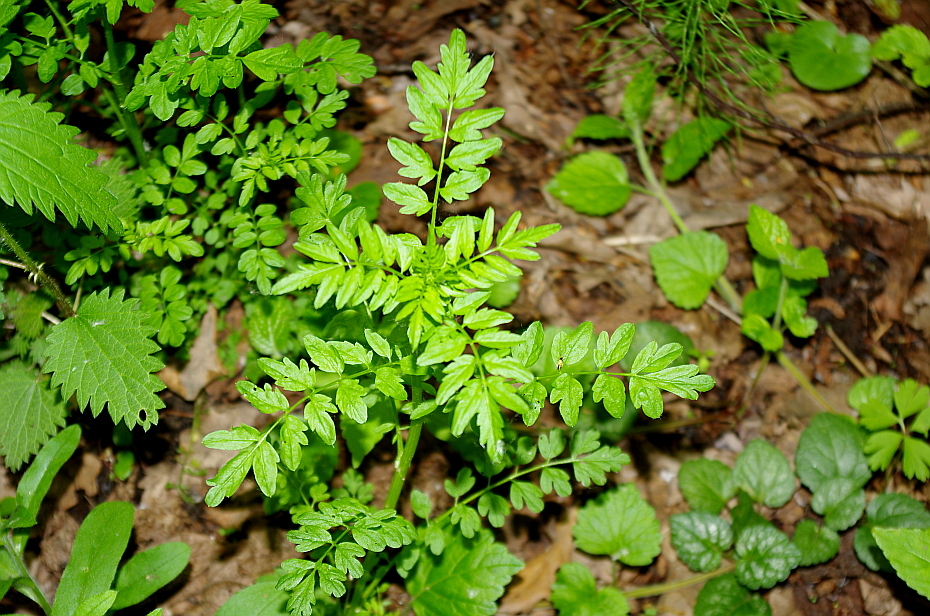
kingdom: Plantae
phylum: Tracheophyta
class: Magnoliopsida
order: Brassicales
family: Brassicaceae
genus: Cardamine
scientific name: Cardamine impatiens
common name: Narrow-leaved bitter-cress
